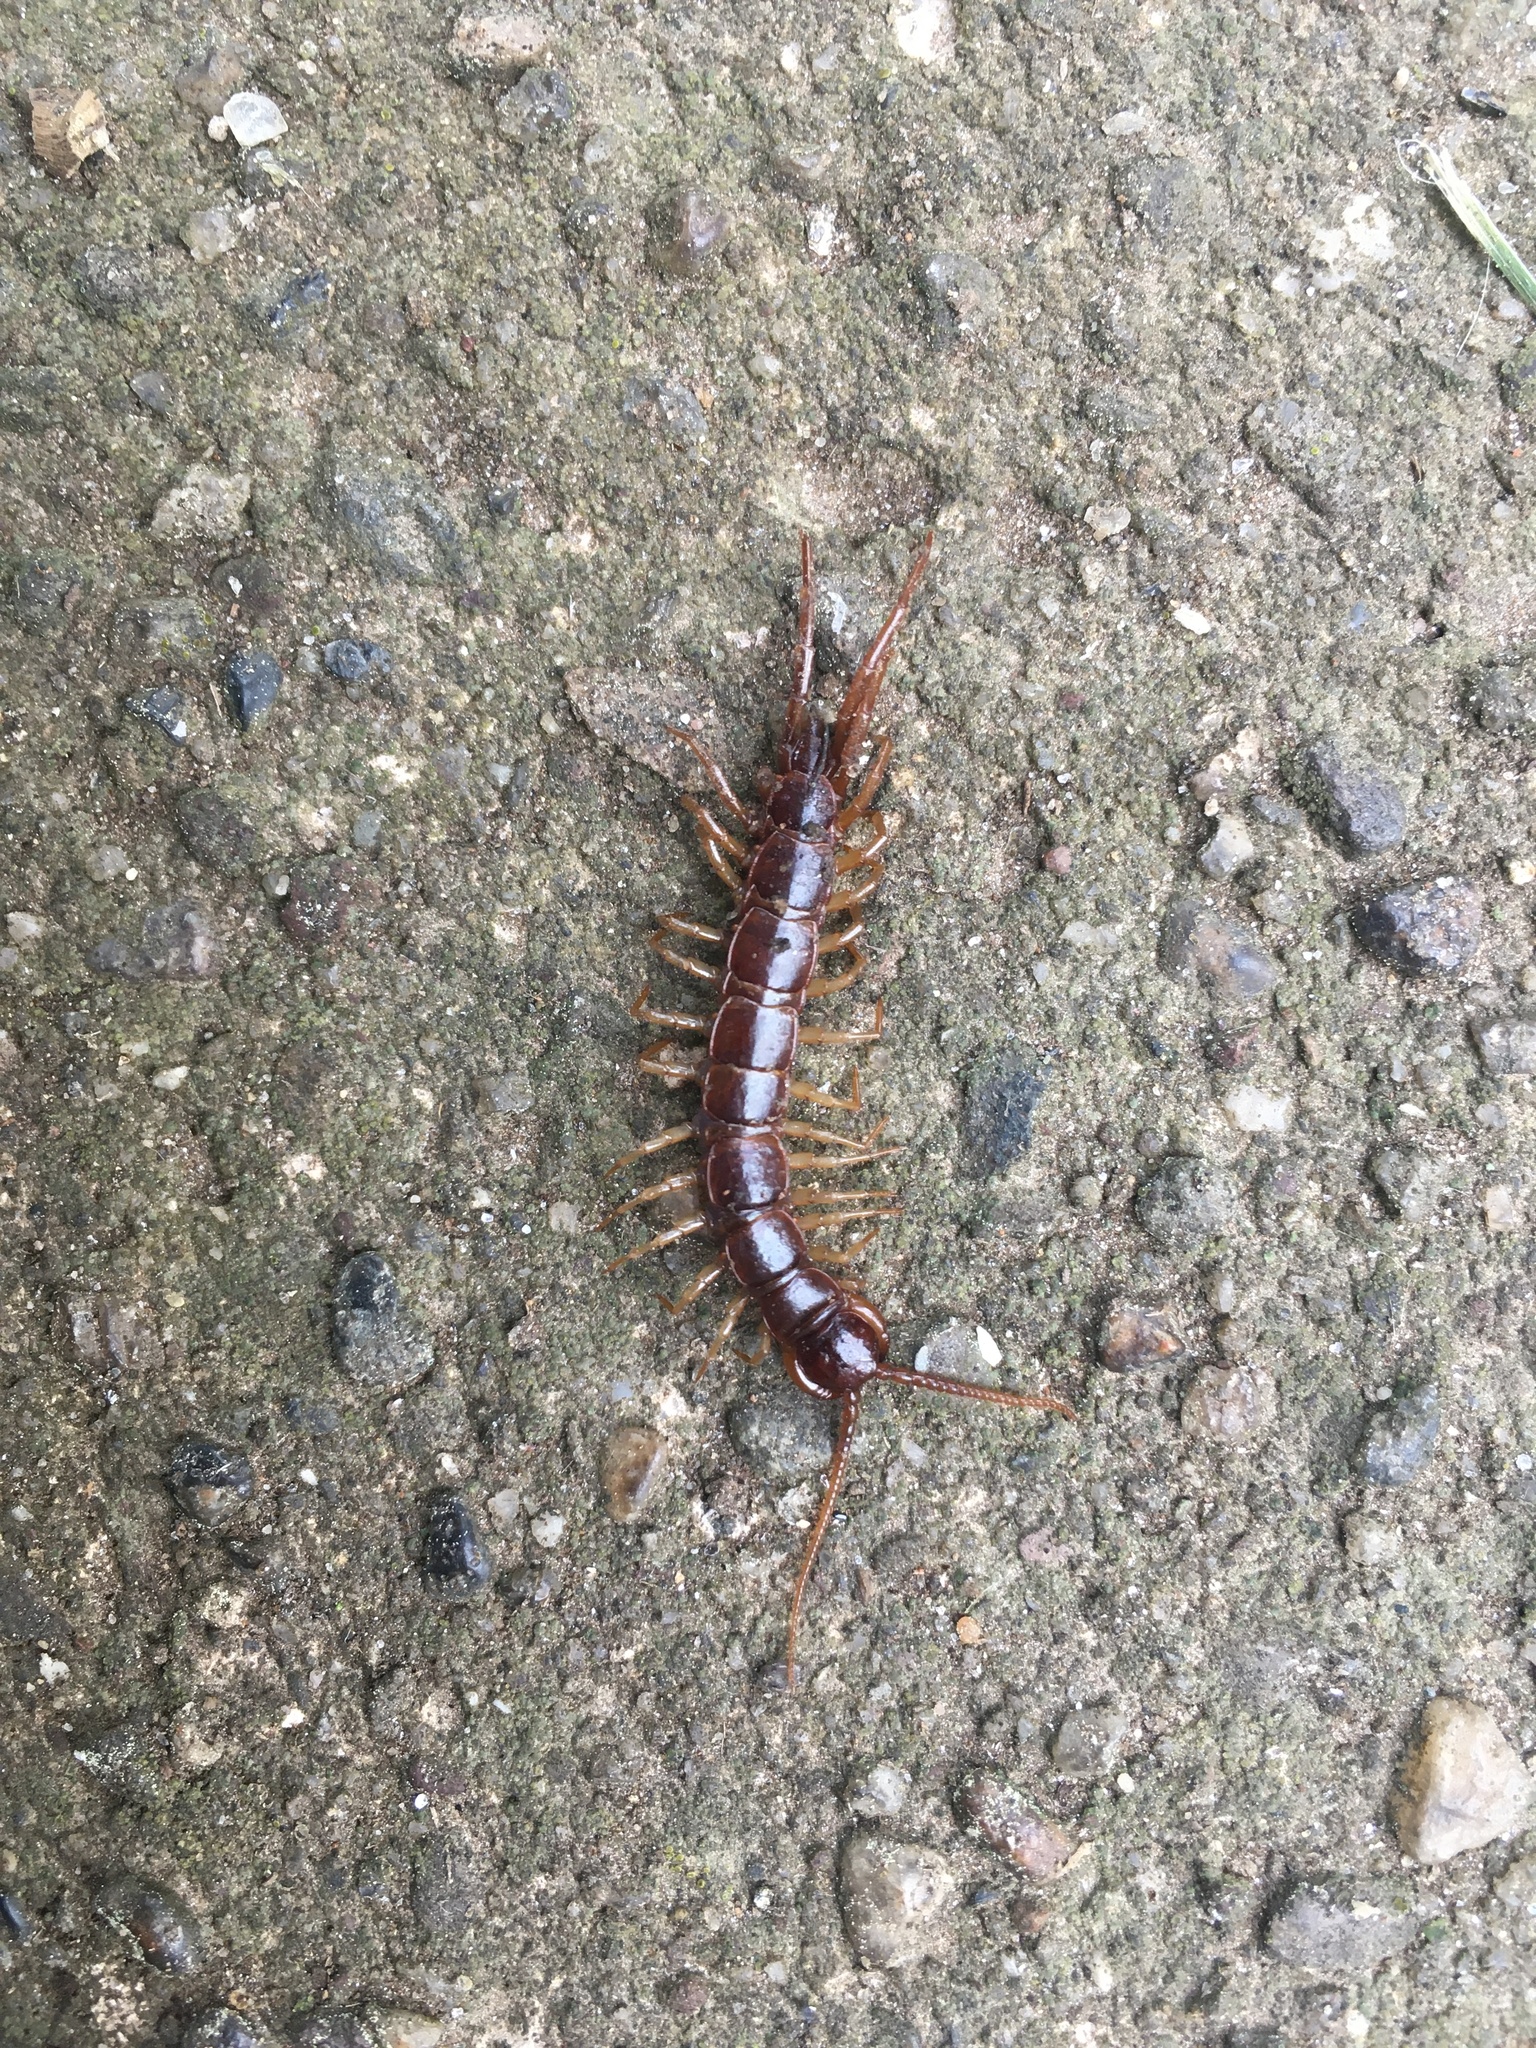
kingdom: Animalia
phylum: Arthropoda
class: Chilopoda
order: Lithobiomorpha
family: Lithobiidae
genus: Lithobius
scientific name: Lithobius forficatus
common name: Centipede
